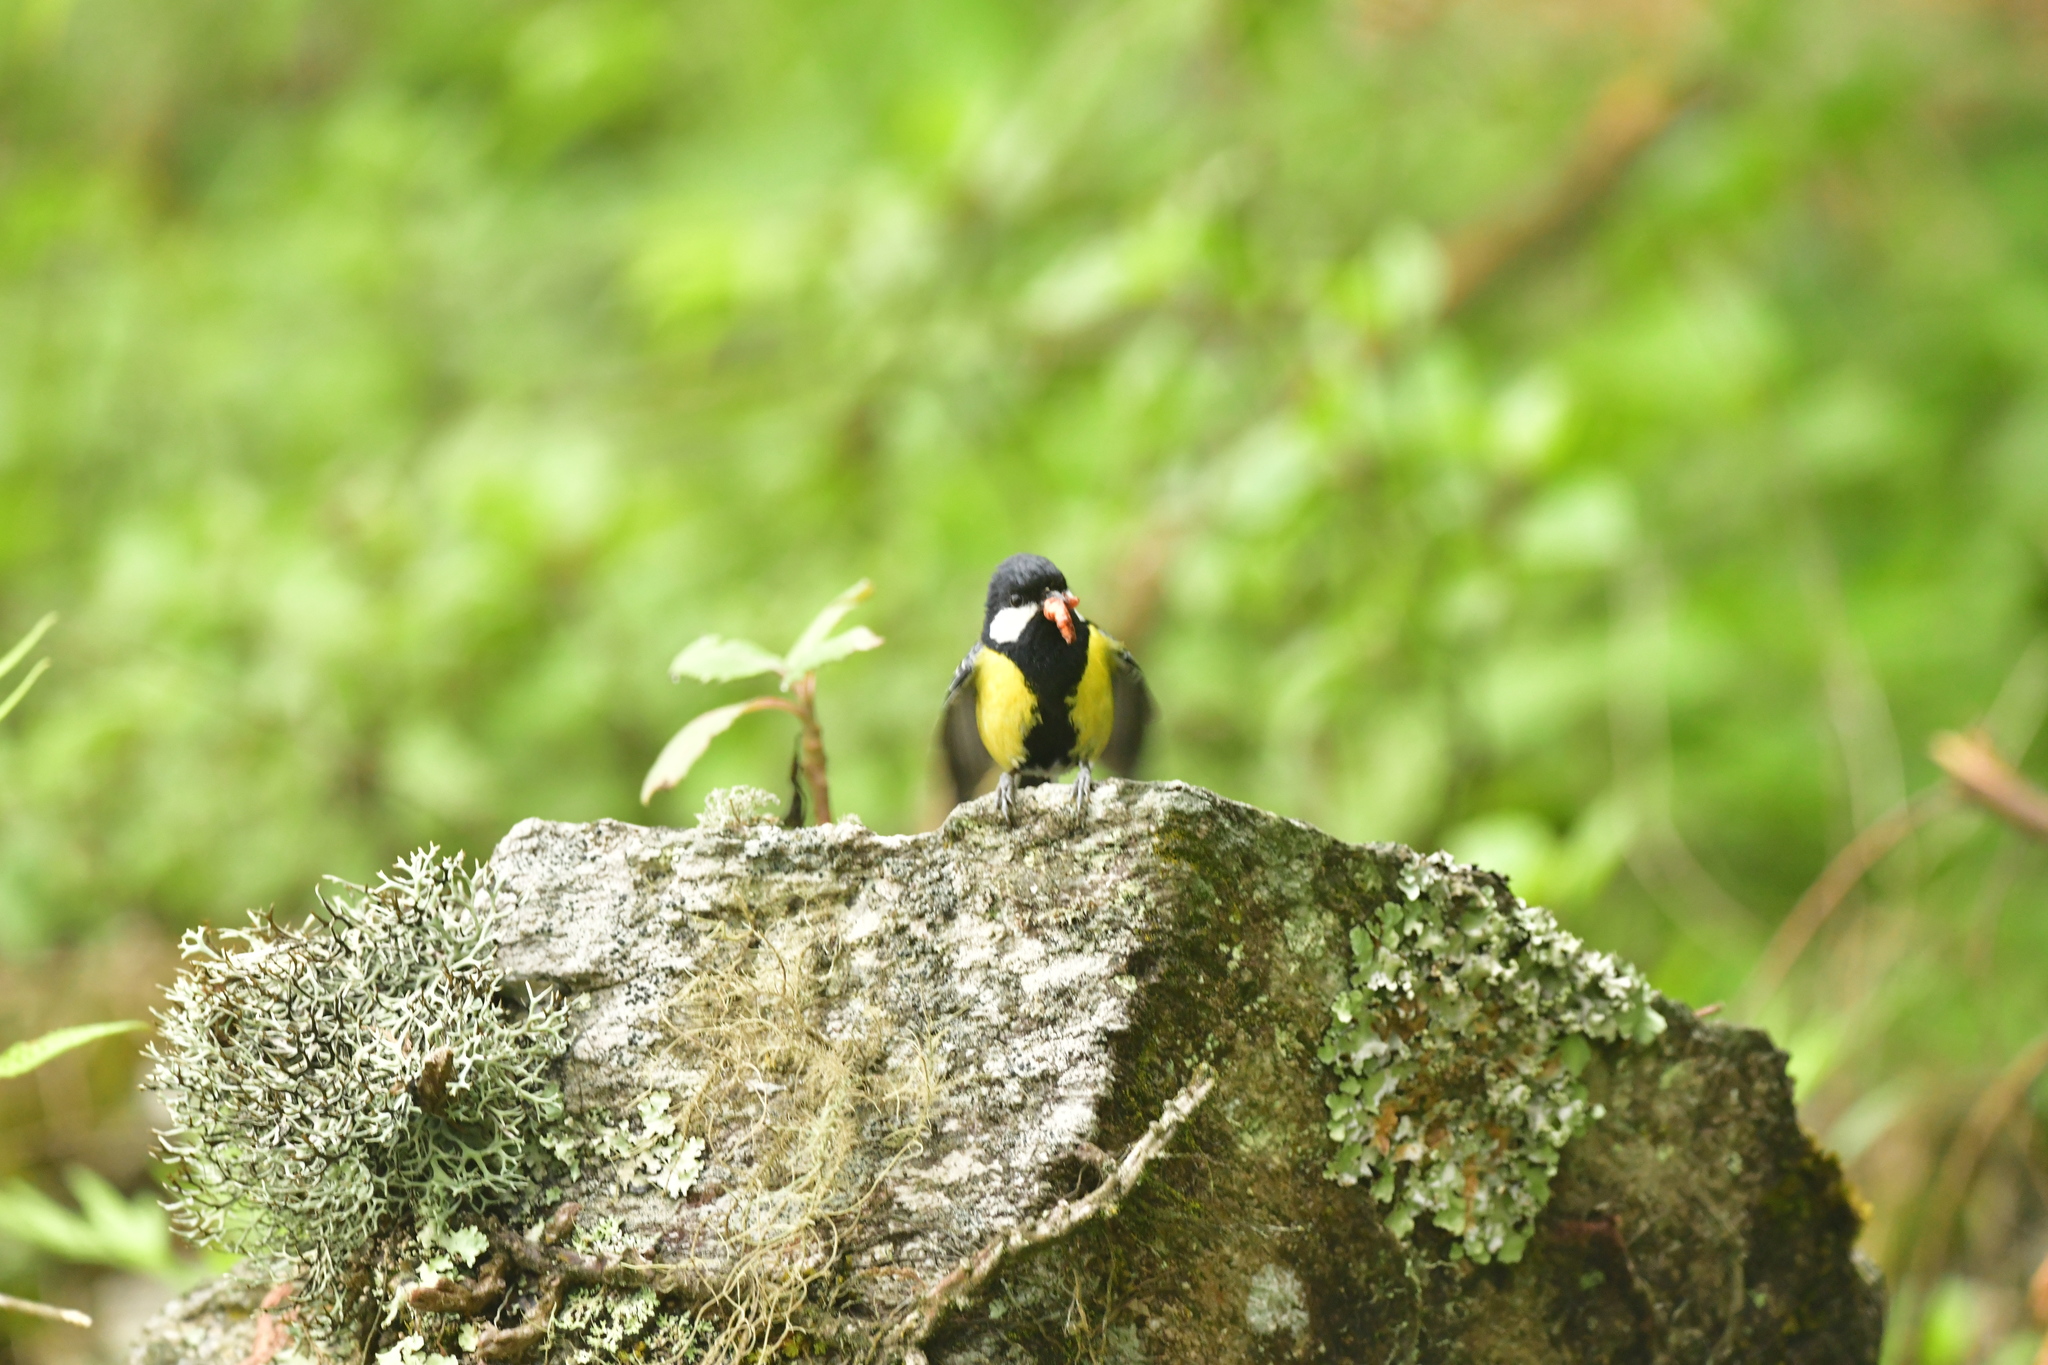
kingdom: Animalia
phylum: Chordata
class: Aves
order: Passeriformes
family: Paridae
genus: Parus
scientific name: Parus monticolus
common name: Green-backed tit
